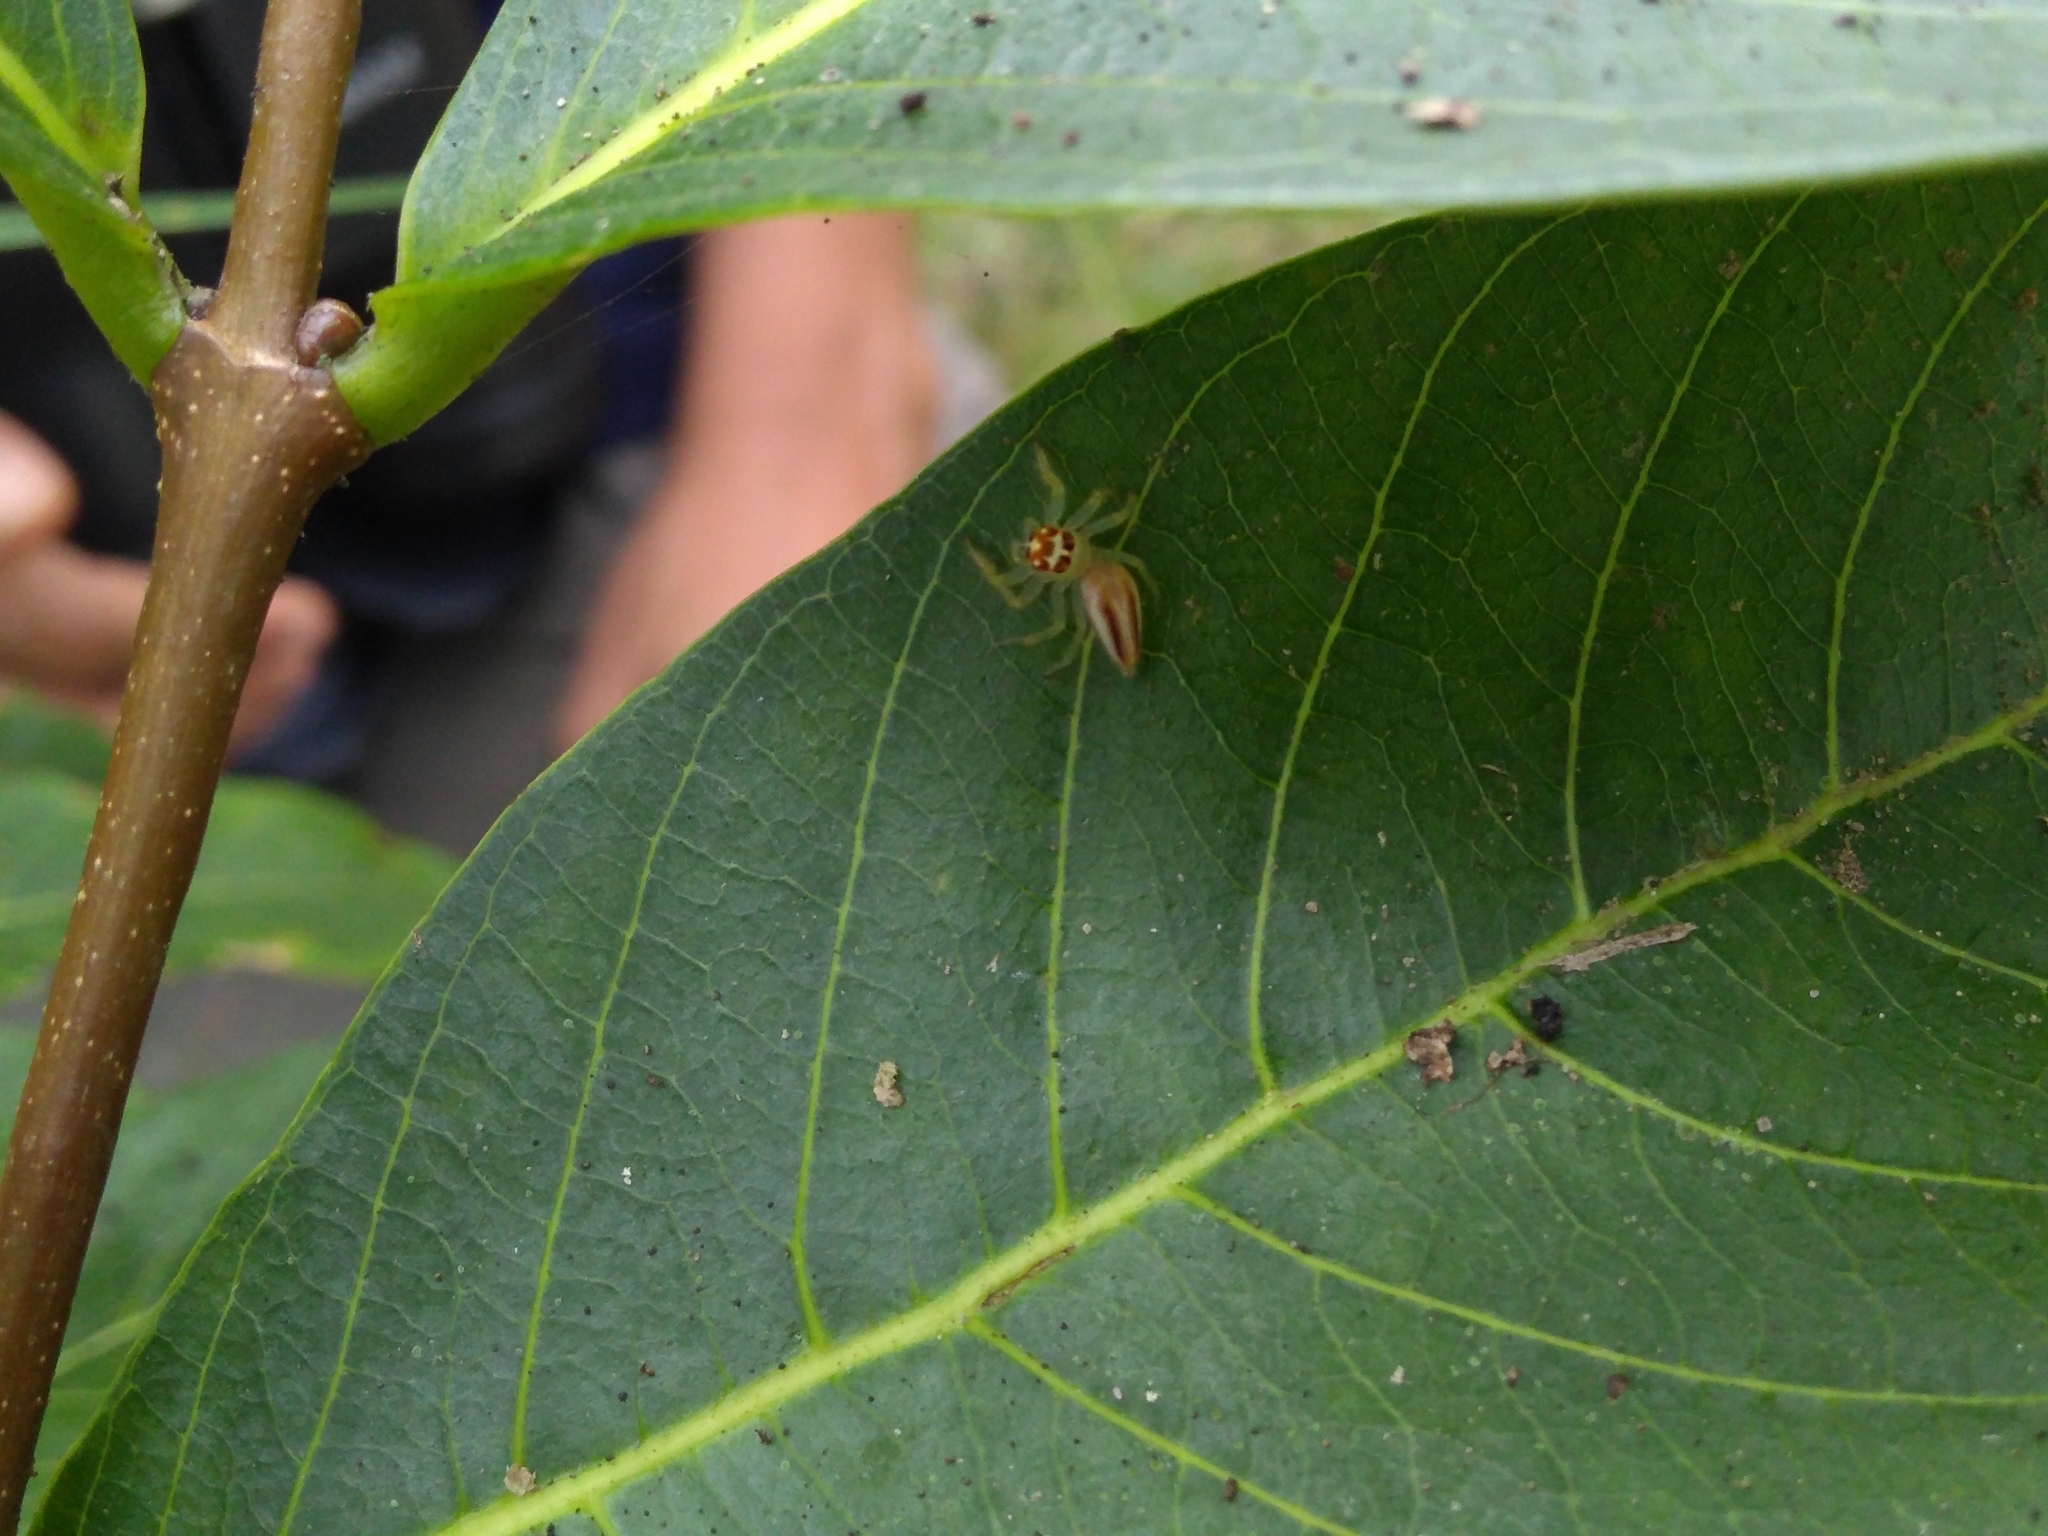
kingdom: Animalia
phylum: Arthropoda
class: Arachnida
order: Araneae
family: Salticidae
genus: Telamonia
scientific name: Telamonia dimidiata
